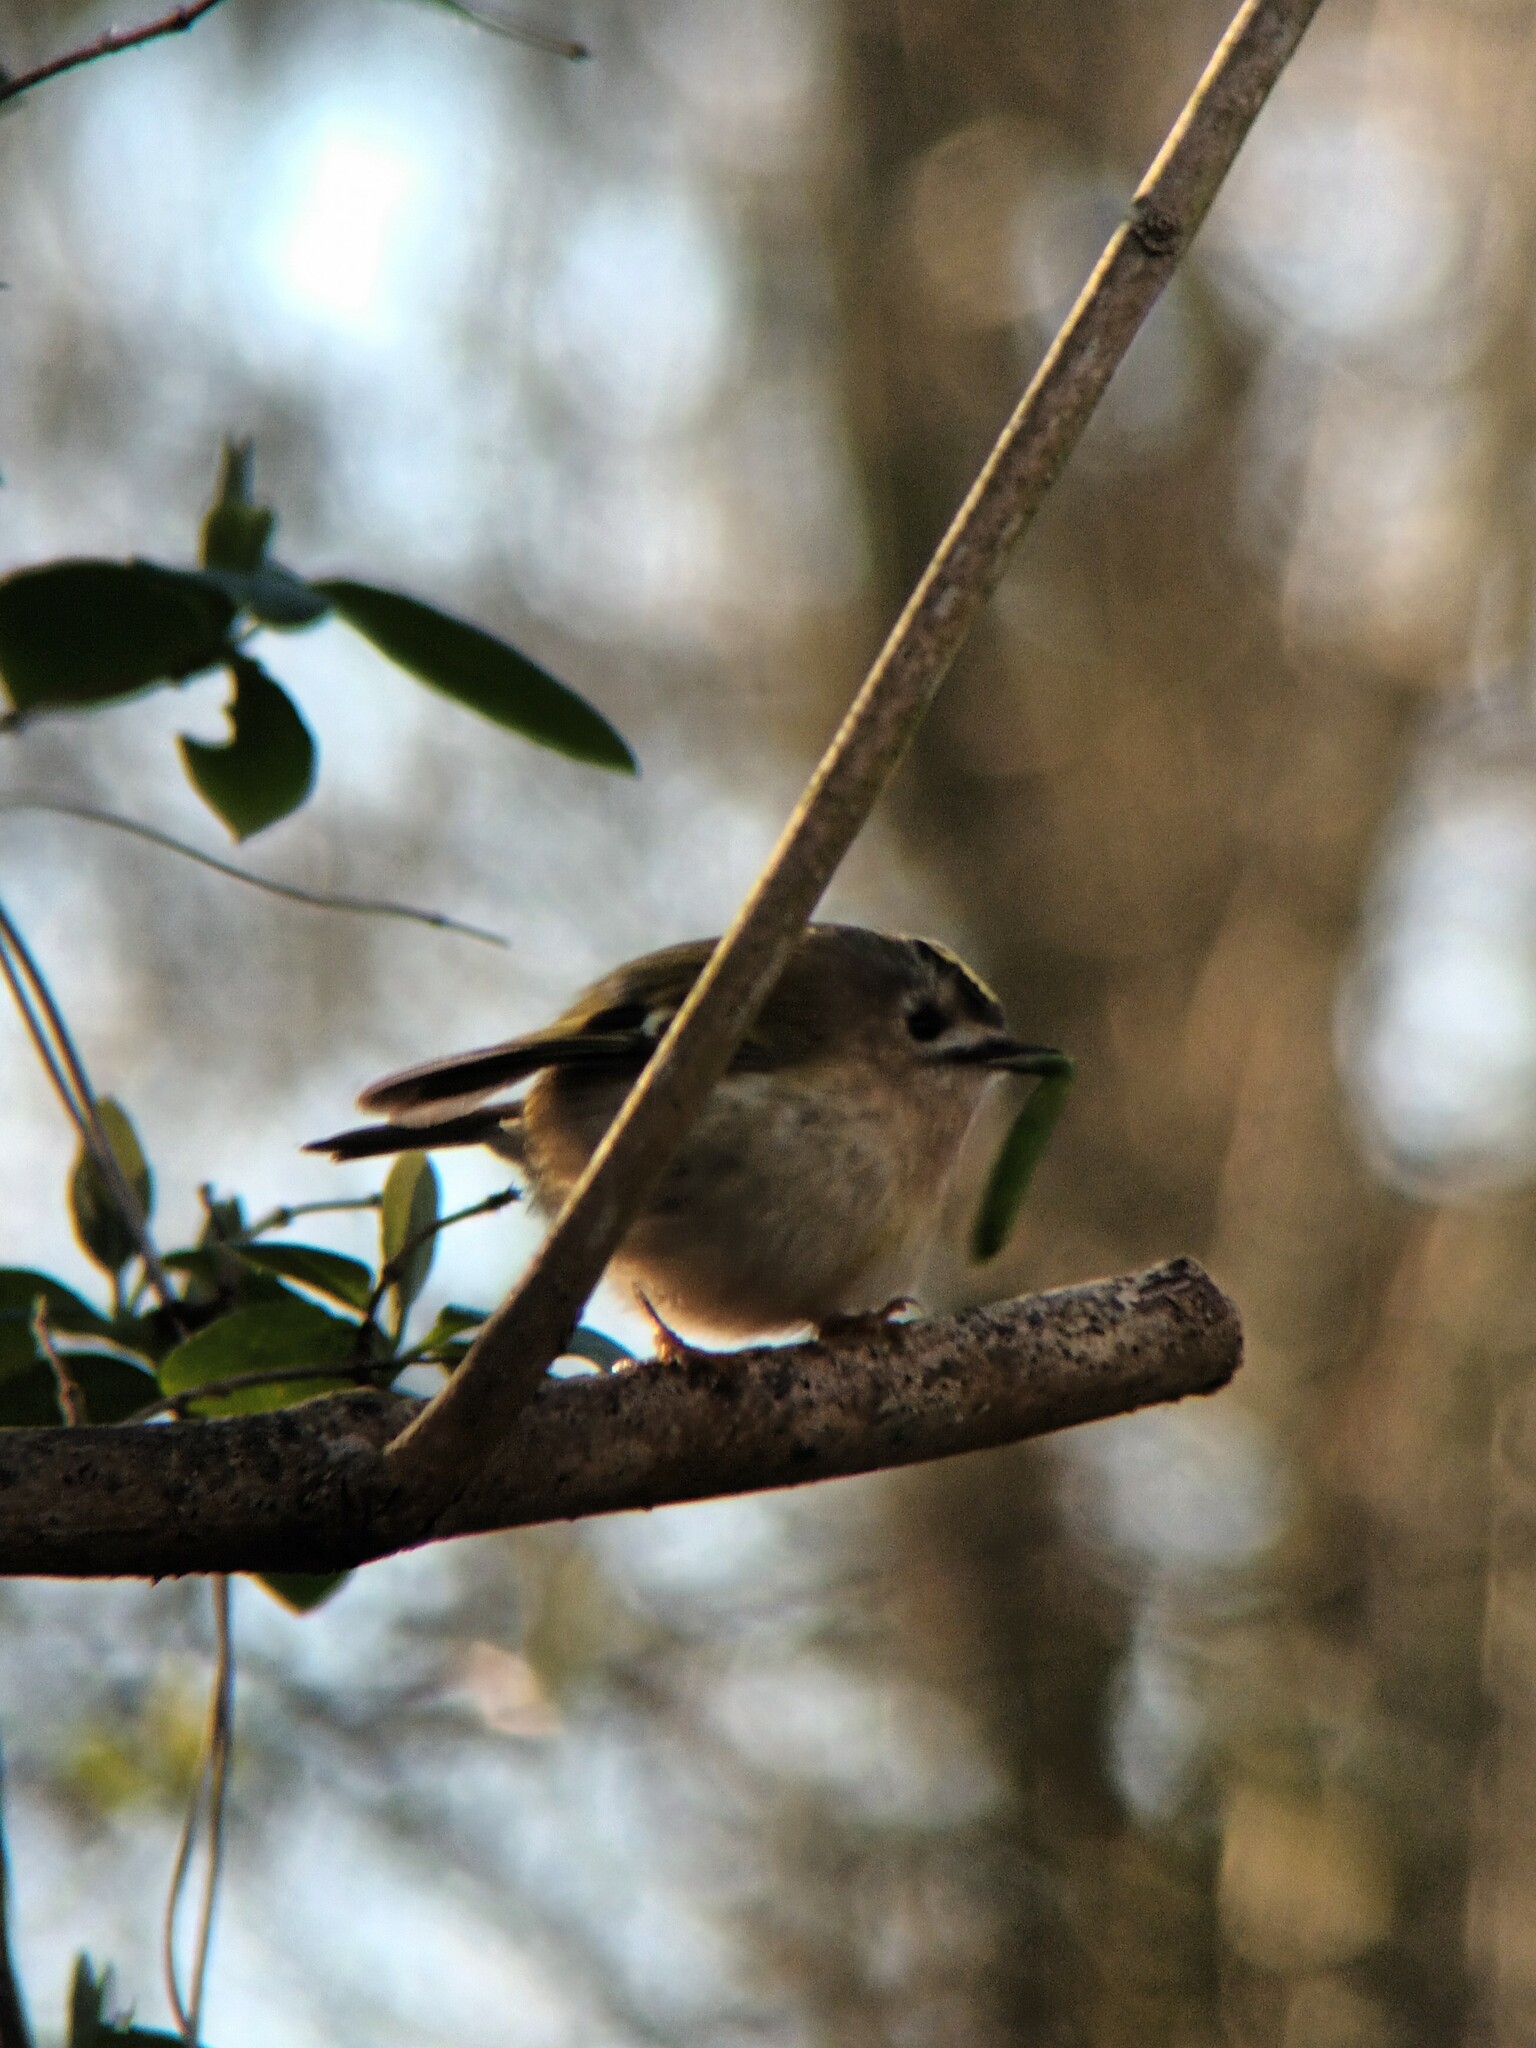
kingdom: Animalia
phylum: Chordata
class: Aves
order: Passeriformes
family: Regulidae
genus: Regulus
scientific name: Regulus regulus
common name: Goldcrest
